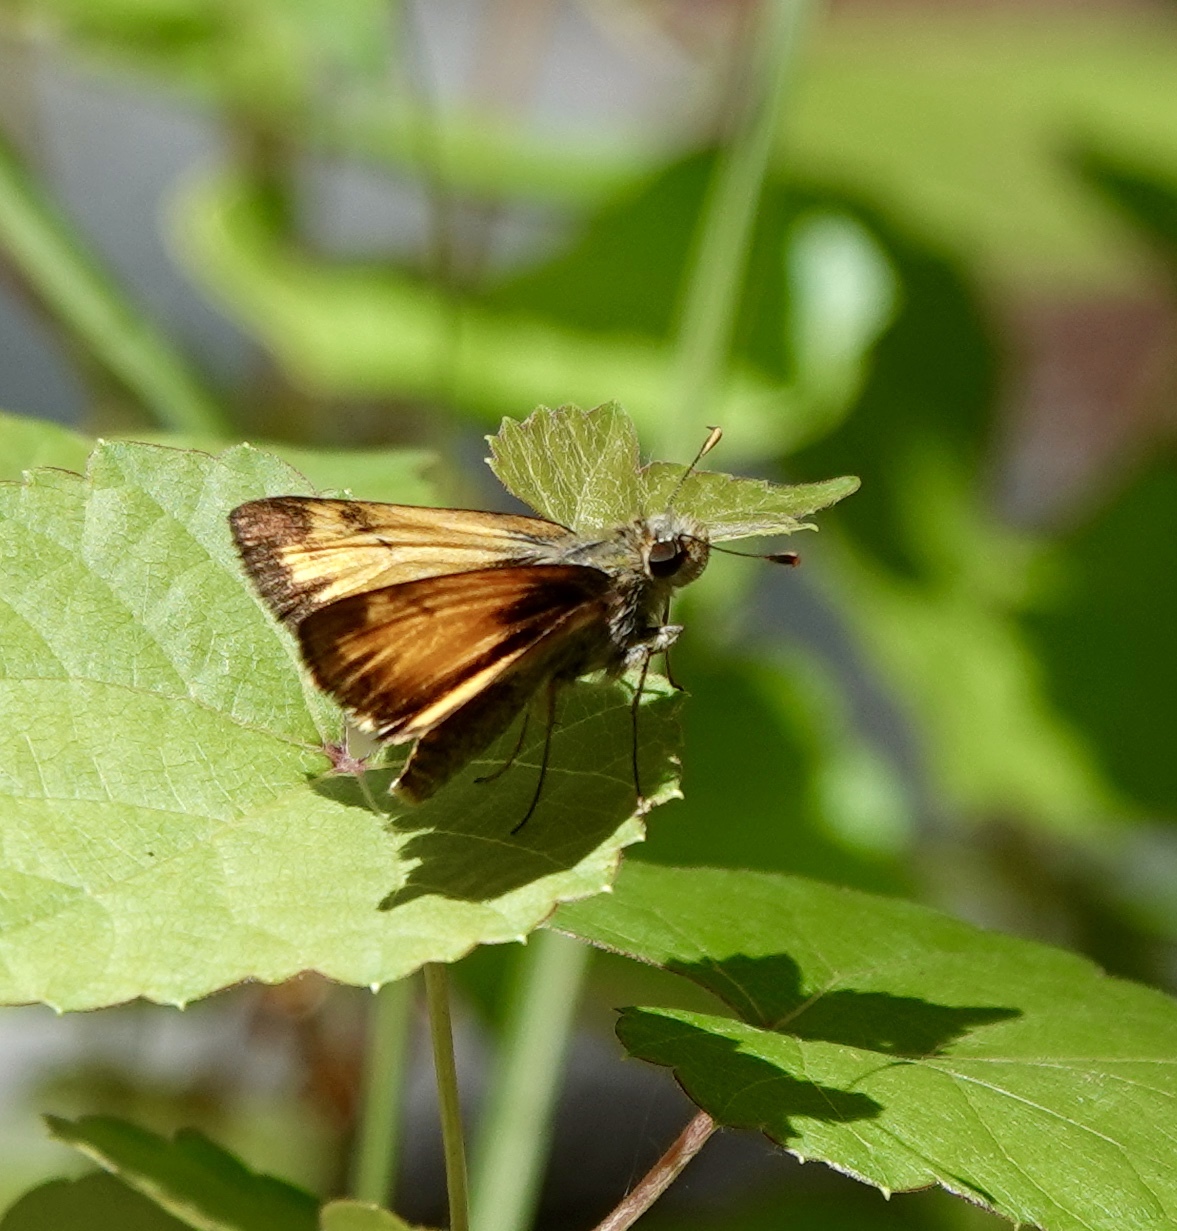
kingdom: Animalia
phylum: Arthropoda
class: Insecta
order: Lepidoptera
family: Hesperiidae
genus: Lon
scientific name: Lon taxiles
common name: Taxiles skipper
